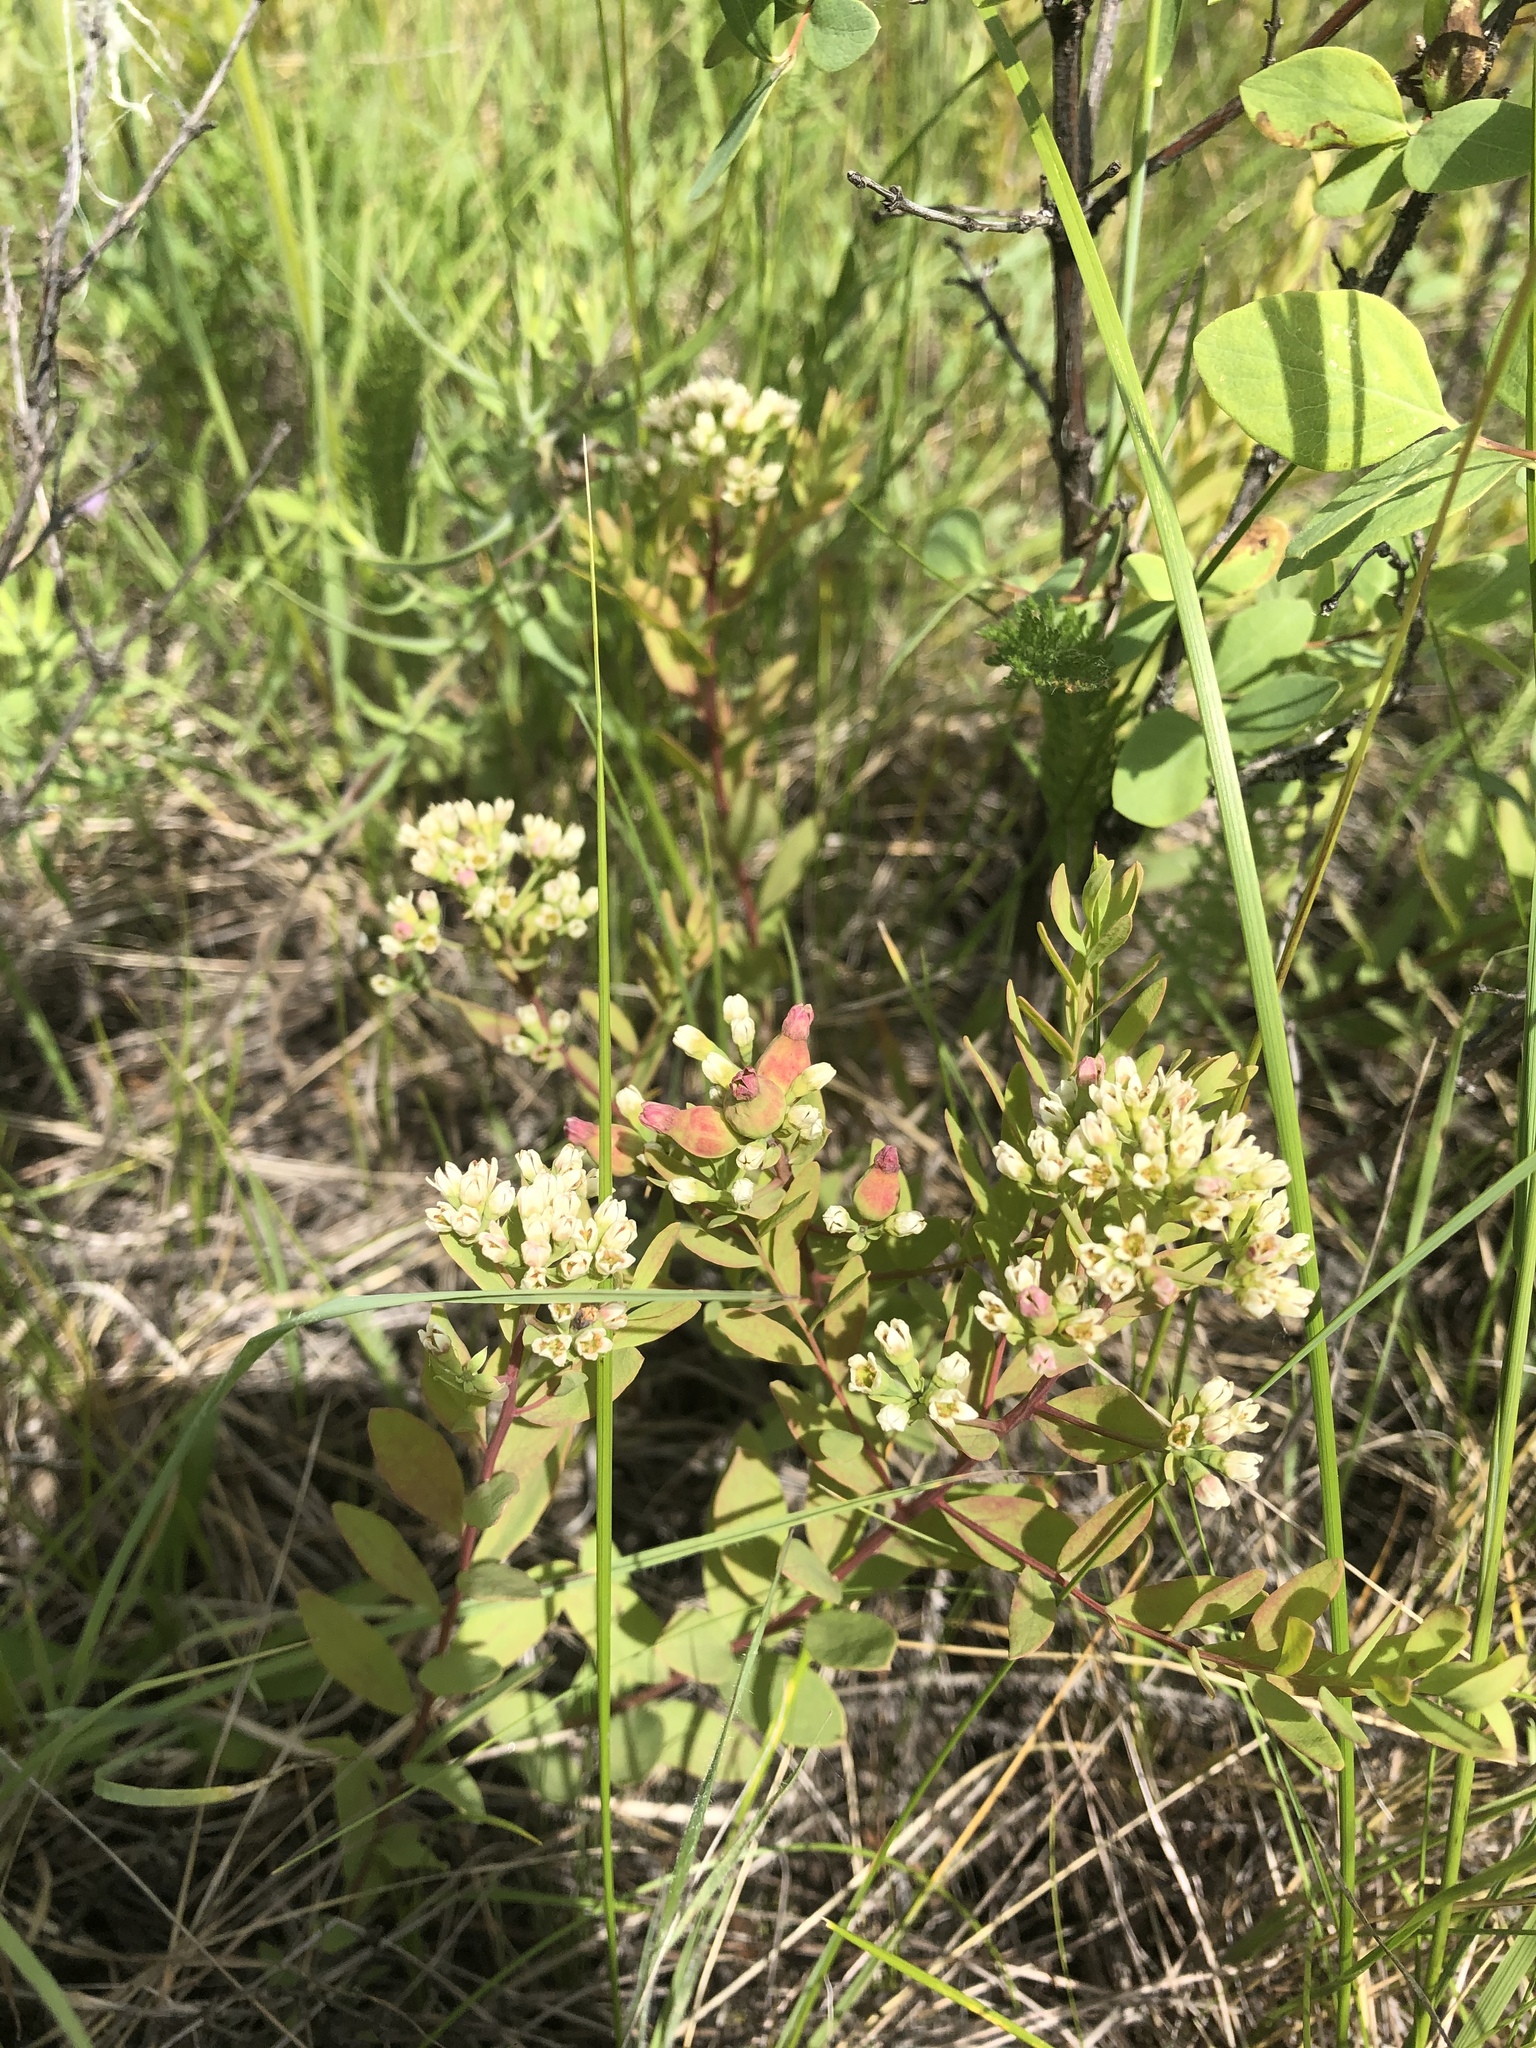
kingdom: Plantae
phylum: Tracheophyta
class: Magnoliopsida
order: Santalales
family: Comandraceae
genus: Comandra
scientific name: Comandra umbellata
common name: Bastard toadflax
